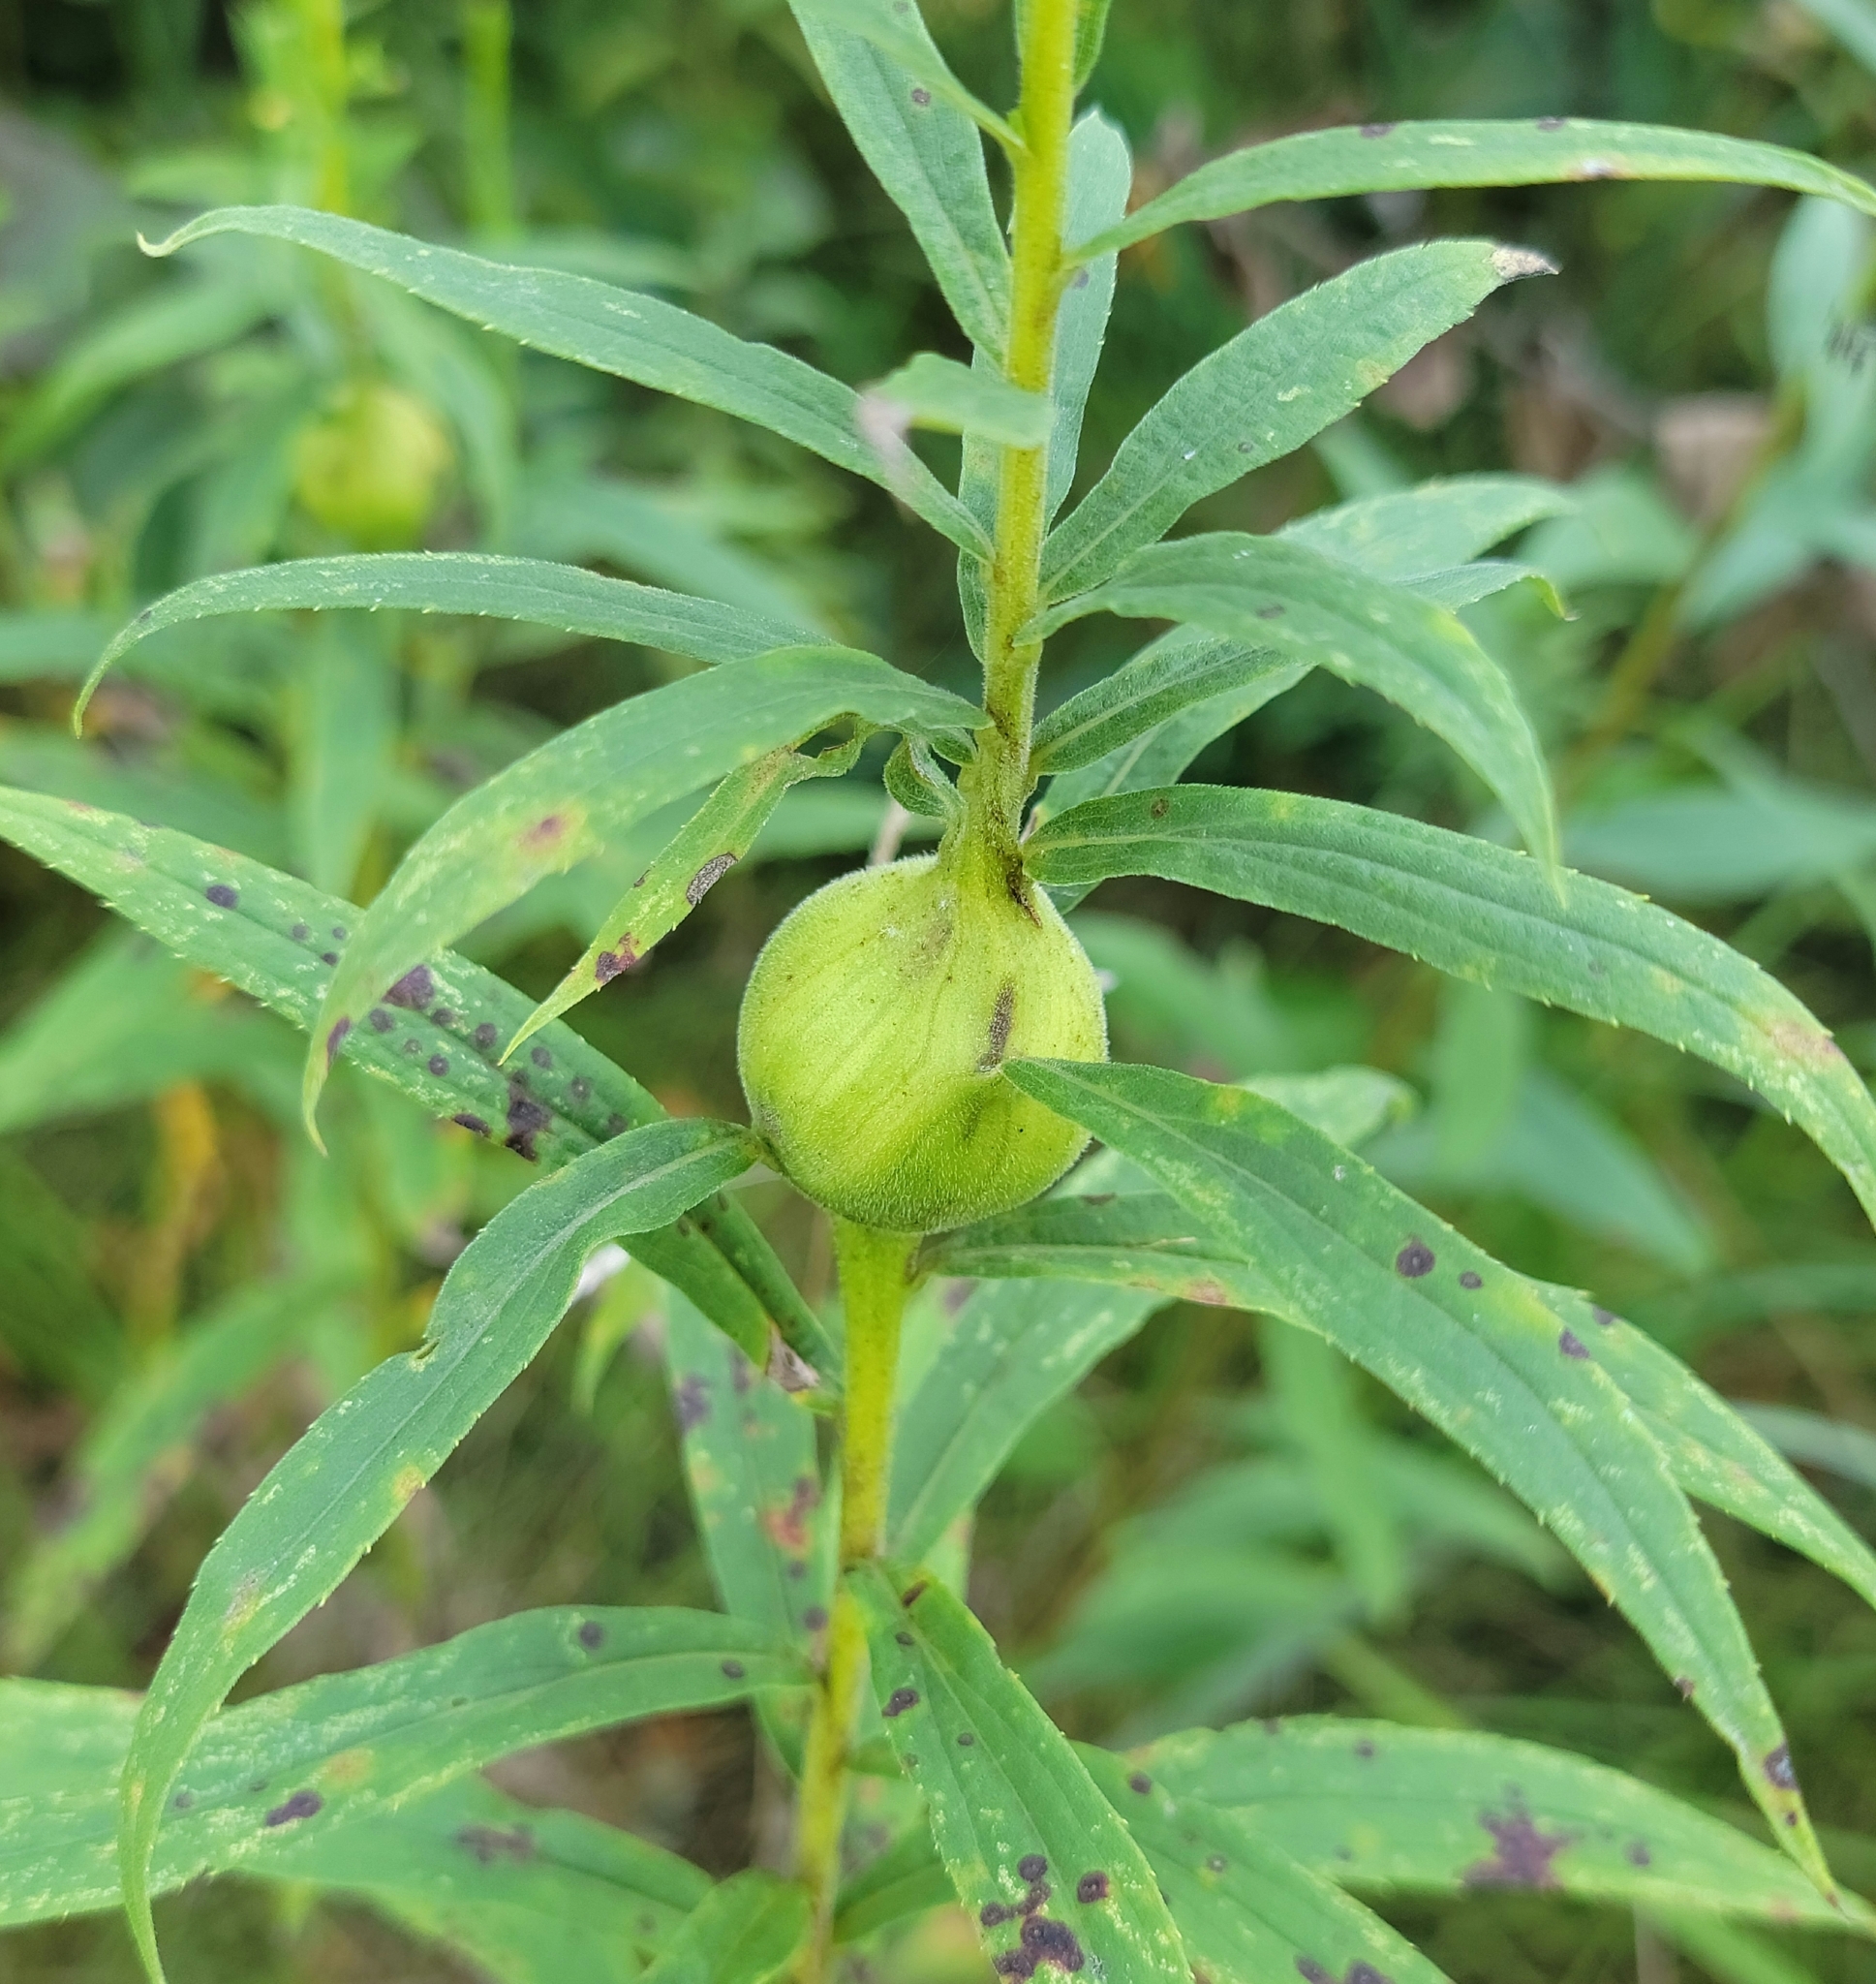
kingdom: Animalia
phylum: Arthropoda
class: Insecta
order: Diptera
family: Tephritidae
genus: Eurosta
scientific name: Eurosta solidaginis
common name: Goldenrod gall fly
